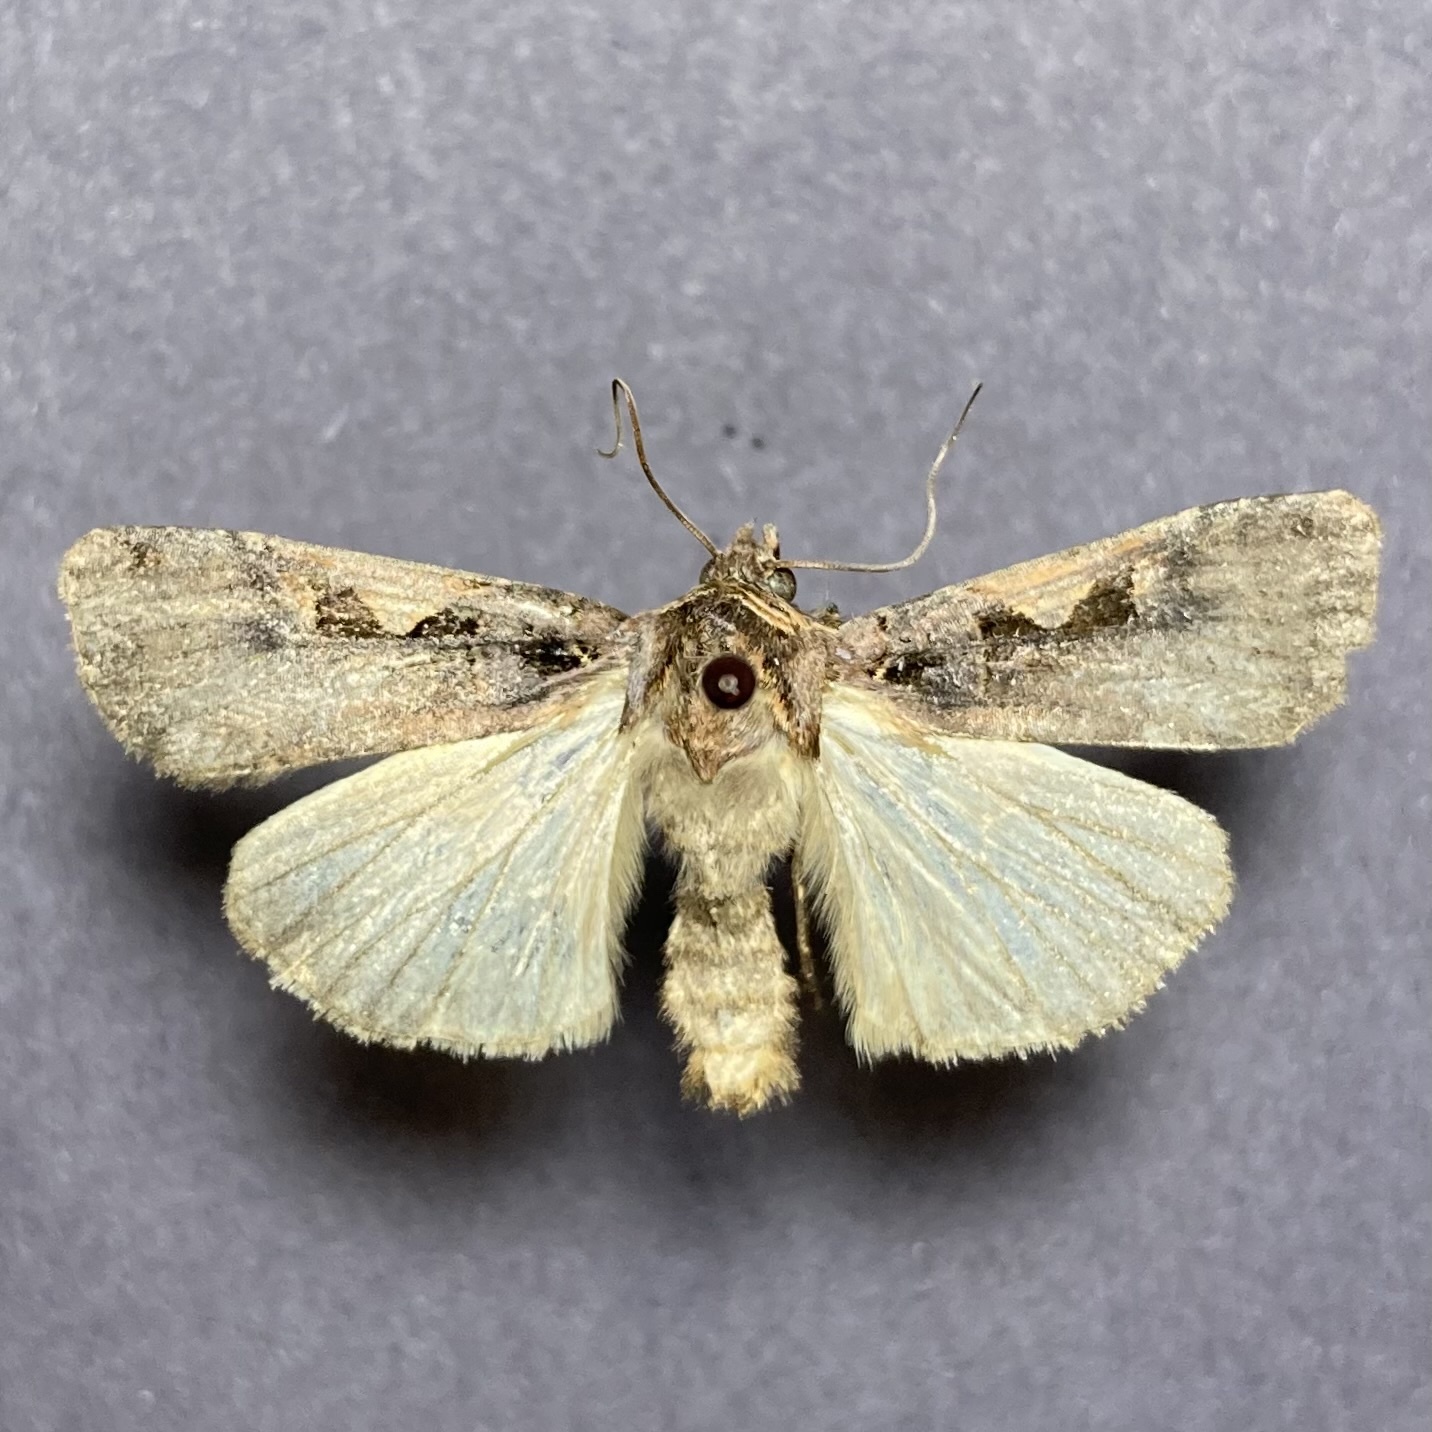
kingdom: Animalia
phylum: Arthropoda
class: Insecta
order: Lepidoptera
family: Noctuidae
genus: Xestia
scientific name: Xestia
